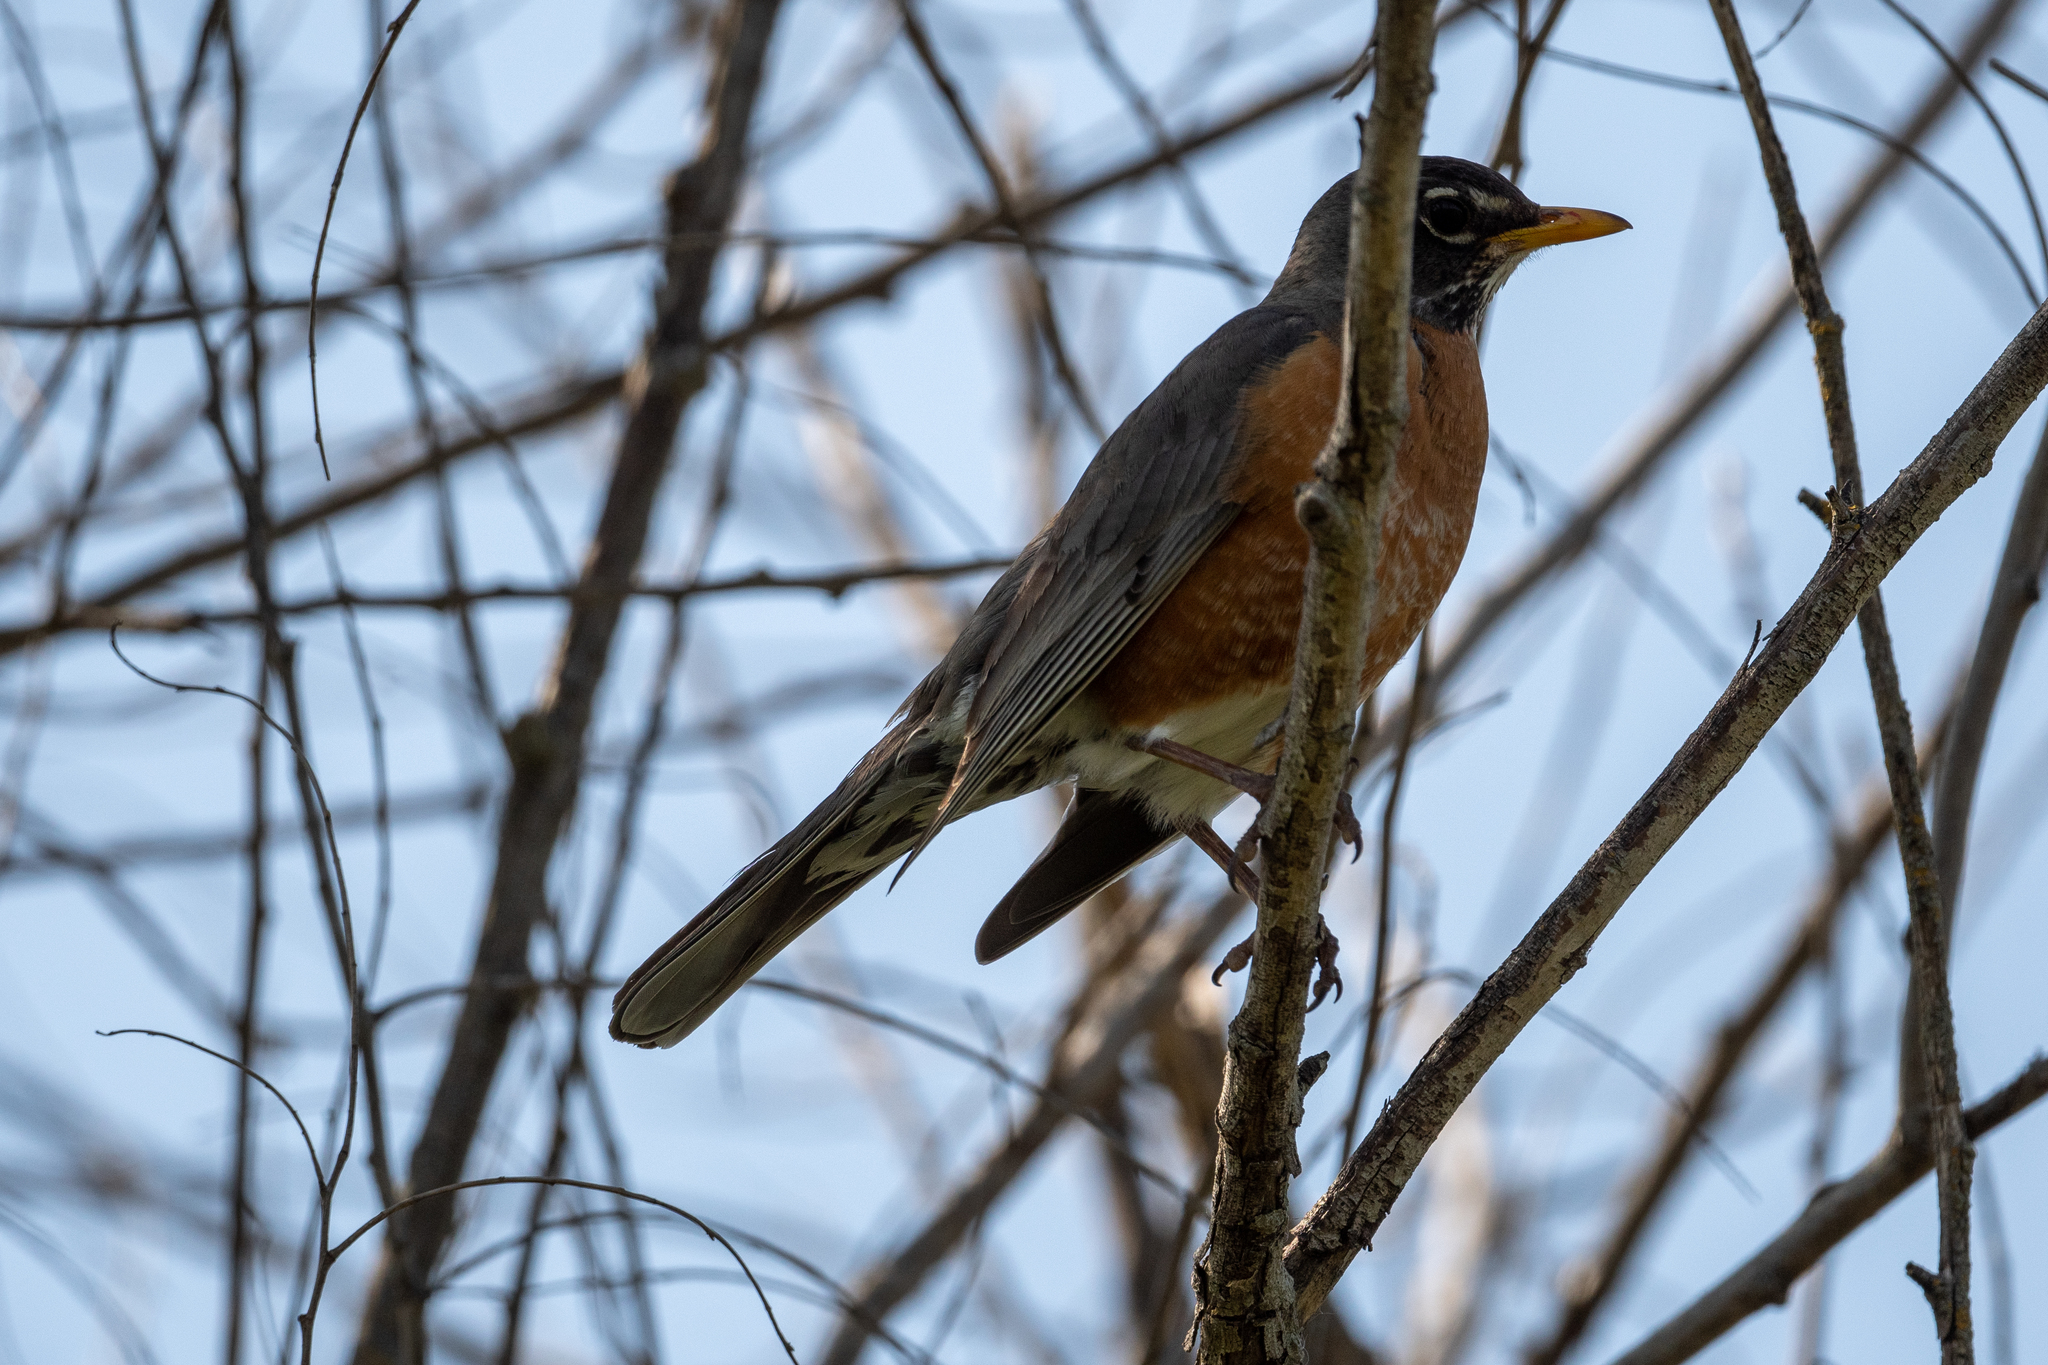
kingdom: Animalia
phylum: Chordata
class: Aves
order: Passeriformes
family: Turdidae
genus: Turdus
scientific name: Turdus migratorius
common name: American robin
